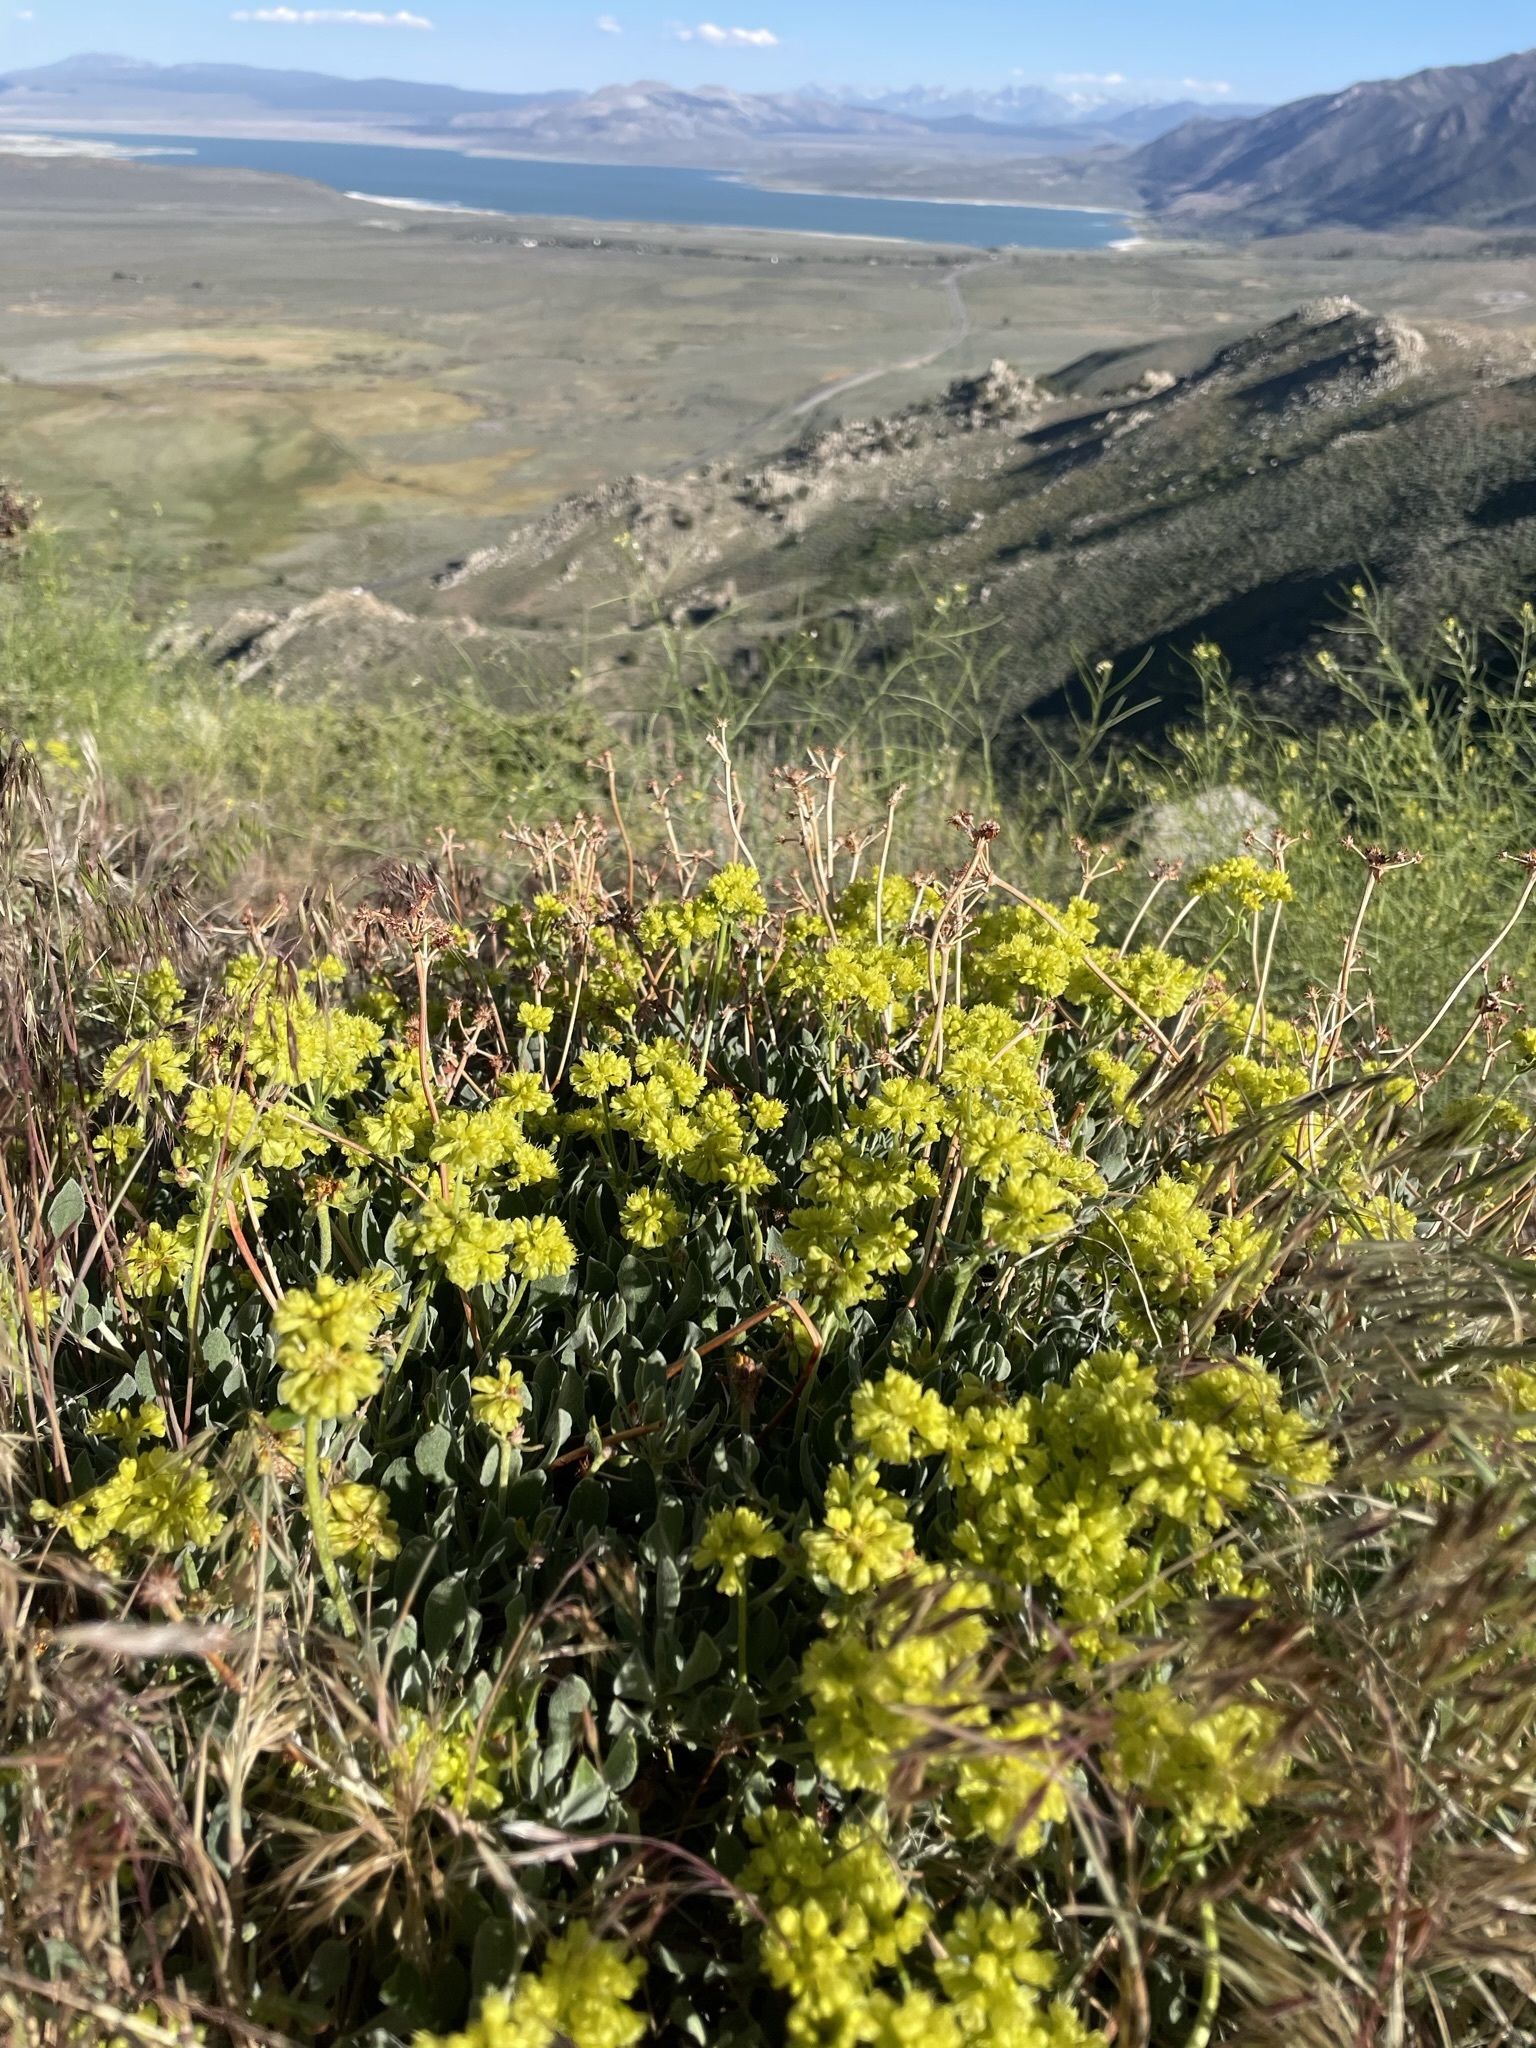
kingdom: Plantae
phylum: Tracheophyta
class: Magnoliopsida
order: Caryophyllales
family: Polygonaceae
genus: Eriogonum
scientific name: Eriogonum umbellatum
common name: Sulfur-buckwheat
